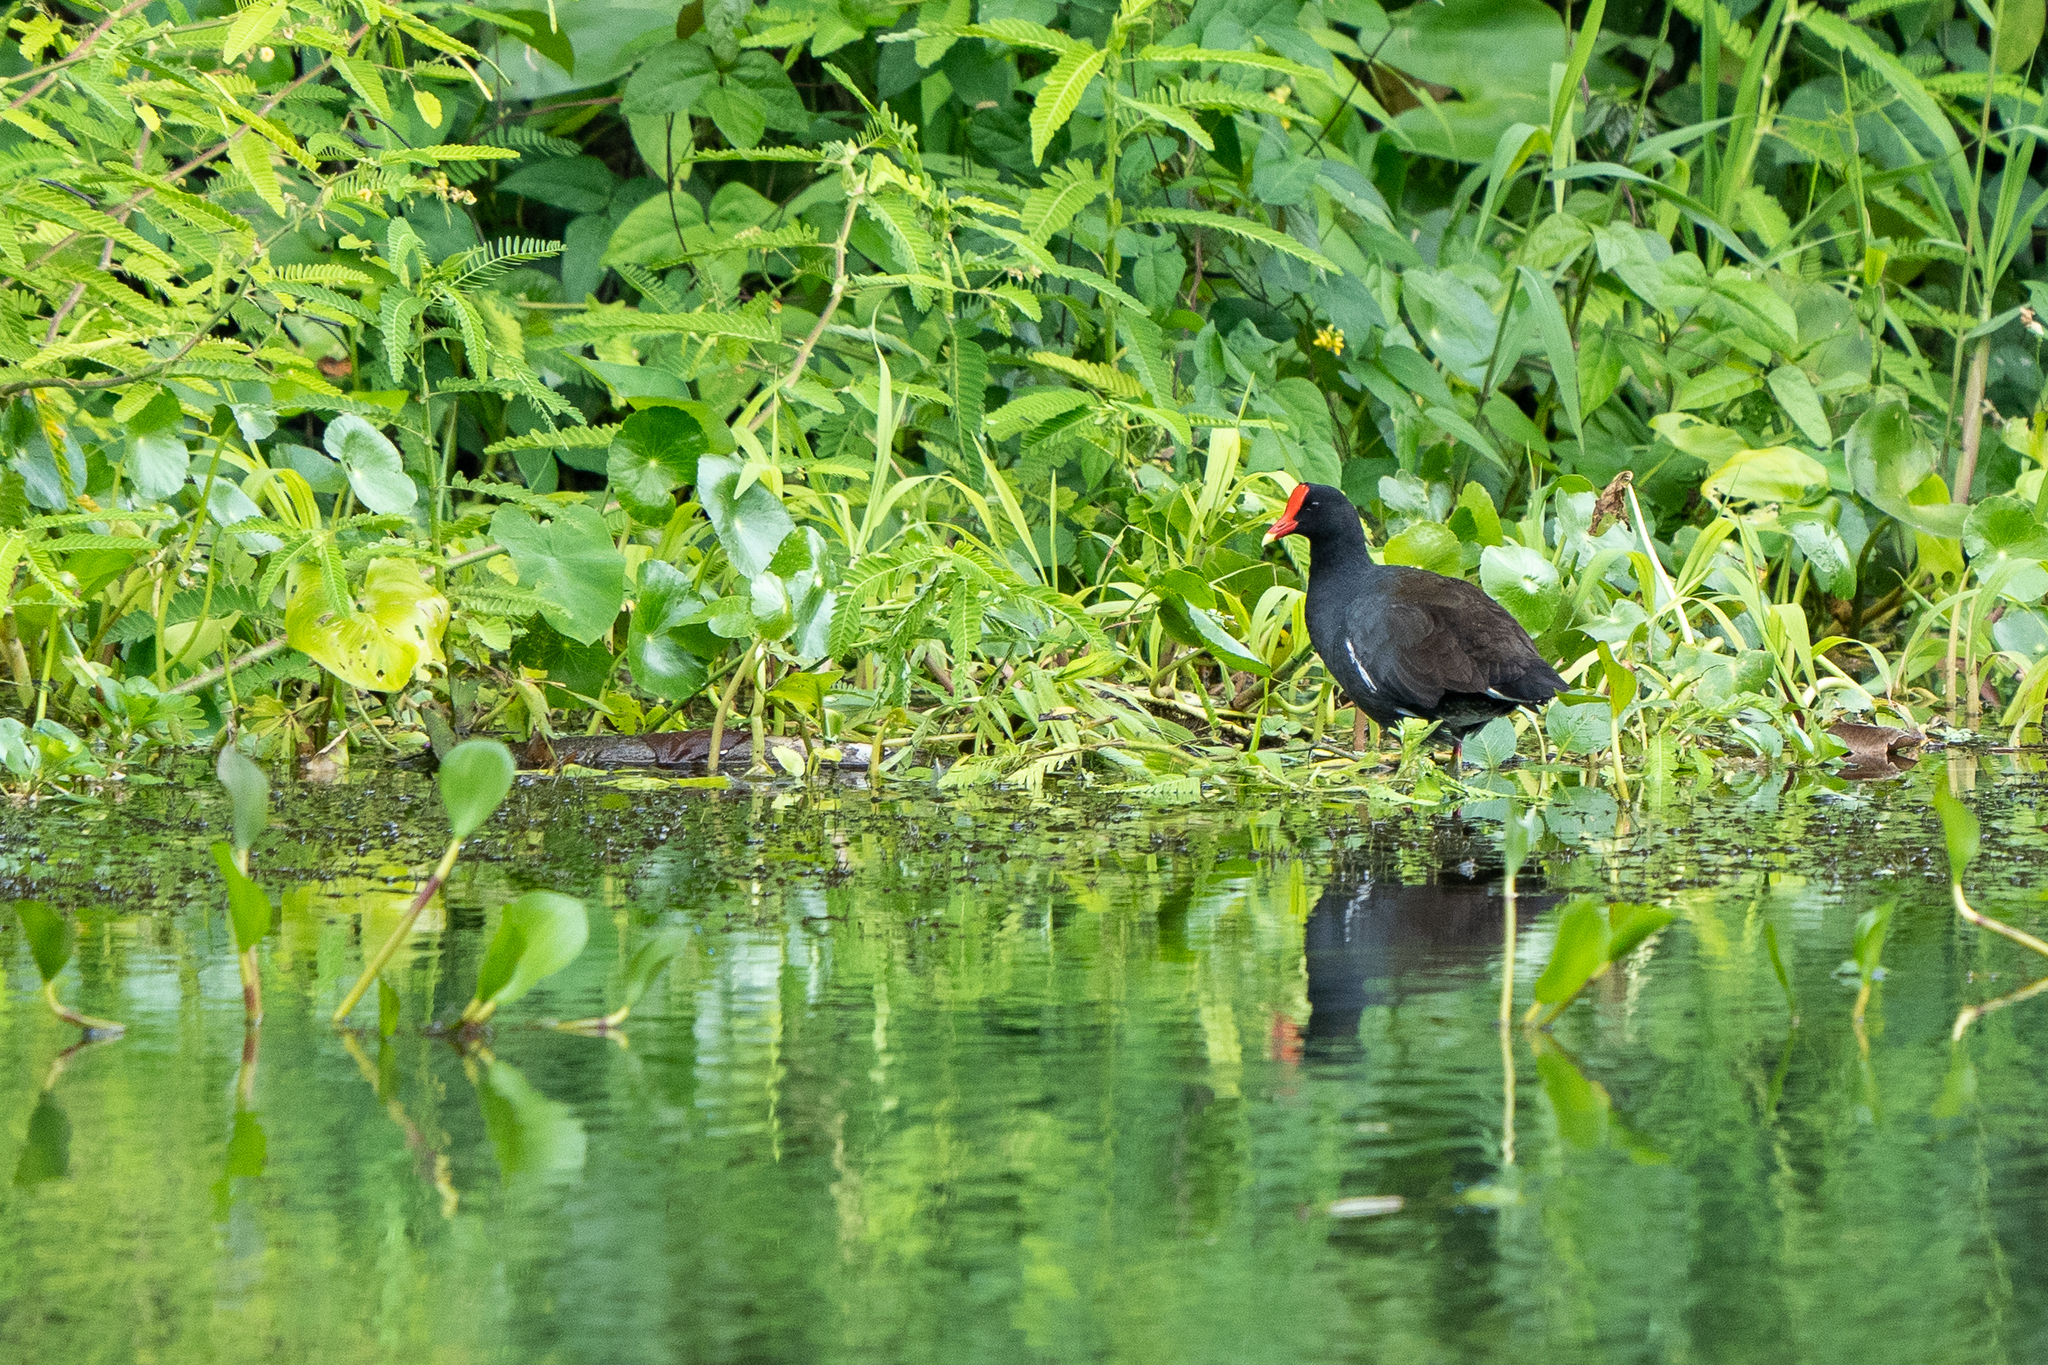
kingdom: Animalia
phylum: Chordata
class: Aves
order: Gruiformes
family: Rallidae
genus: Gallinula
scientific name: Gallinula chloropus
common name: Common moorhen
